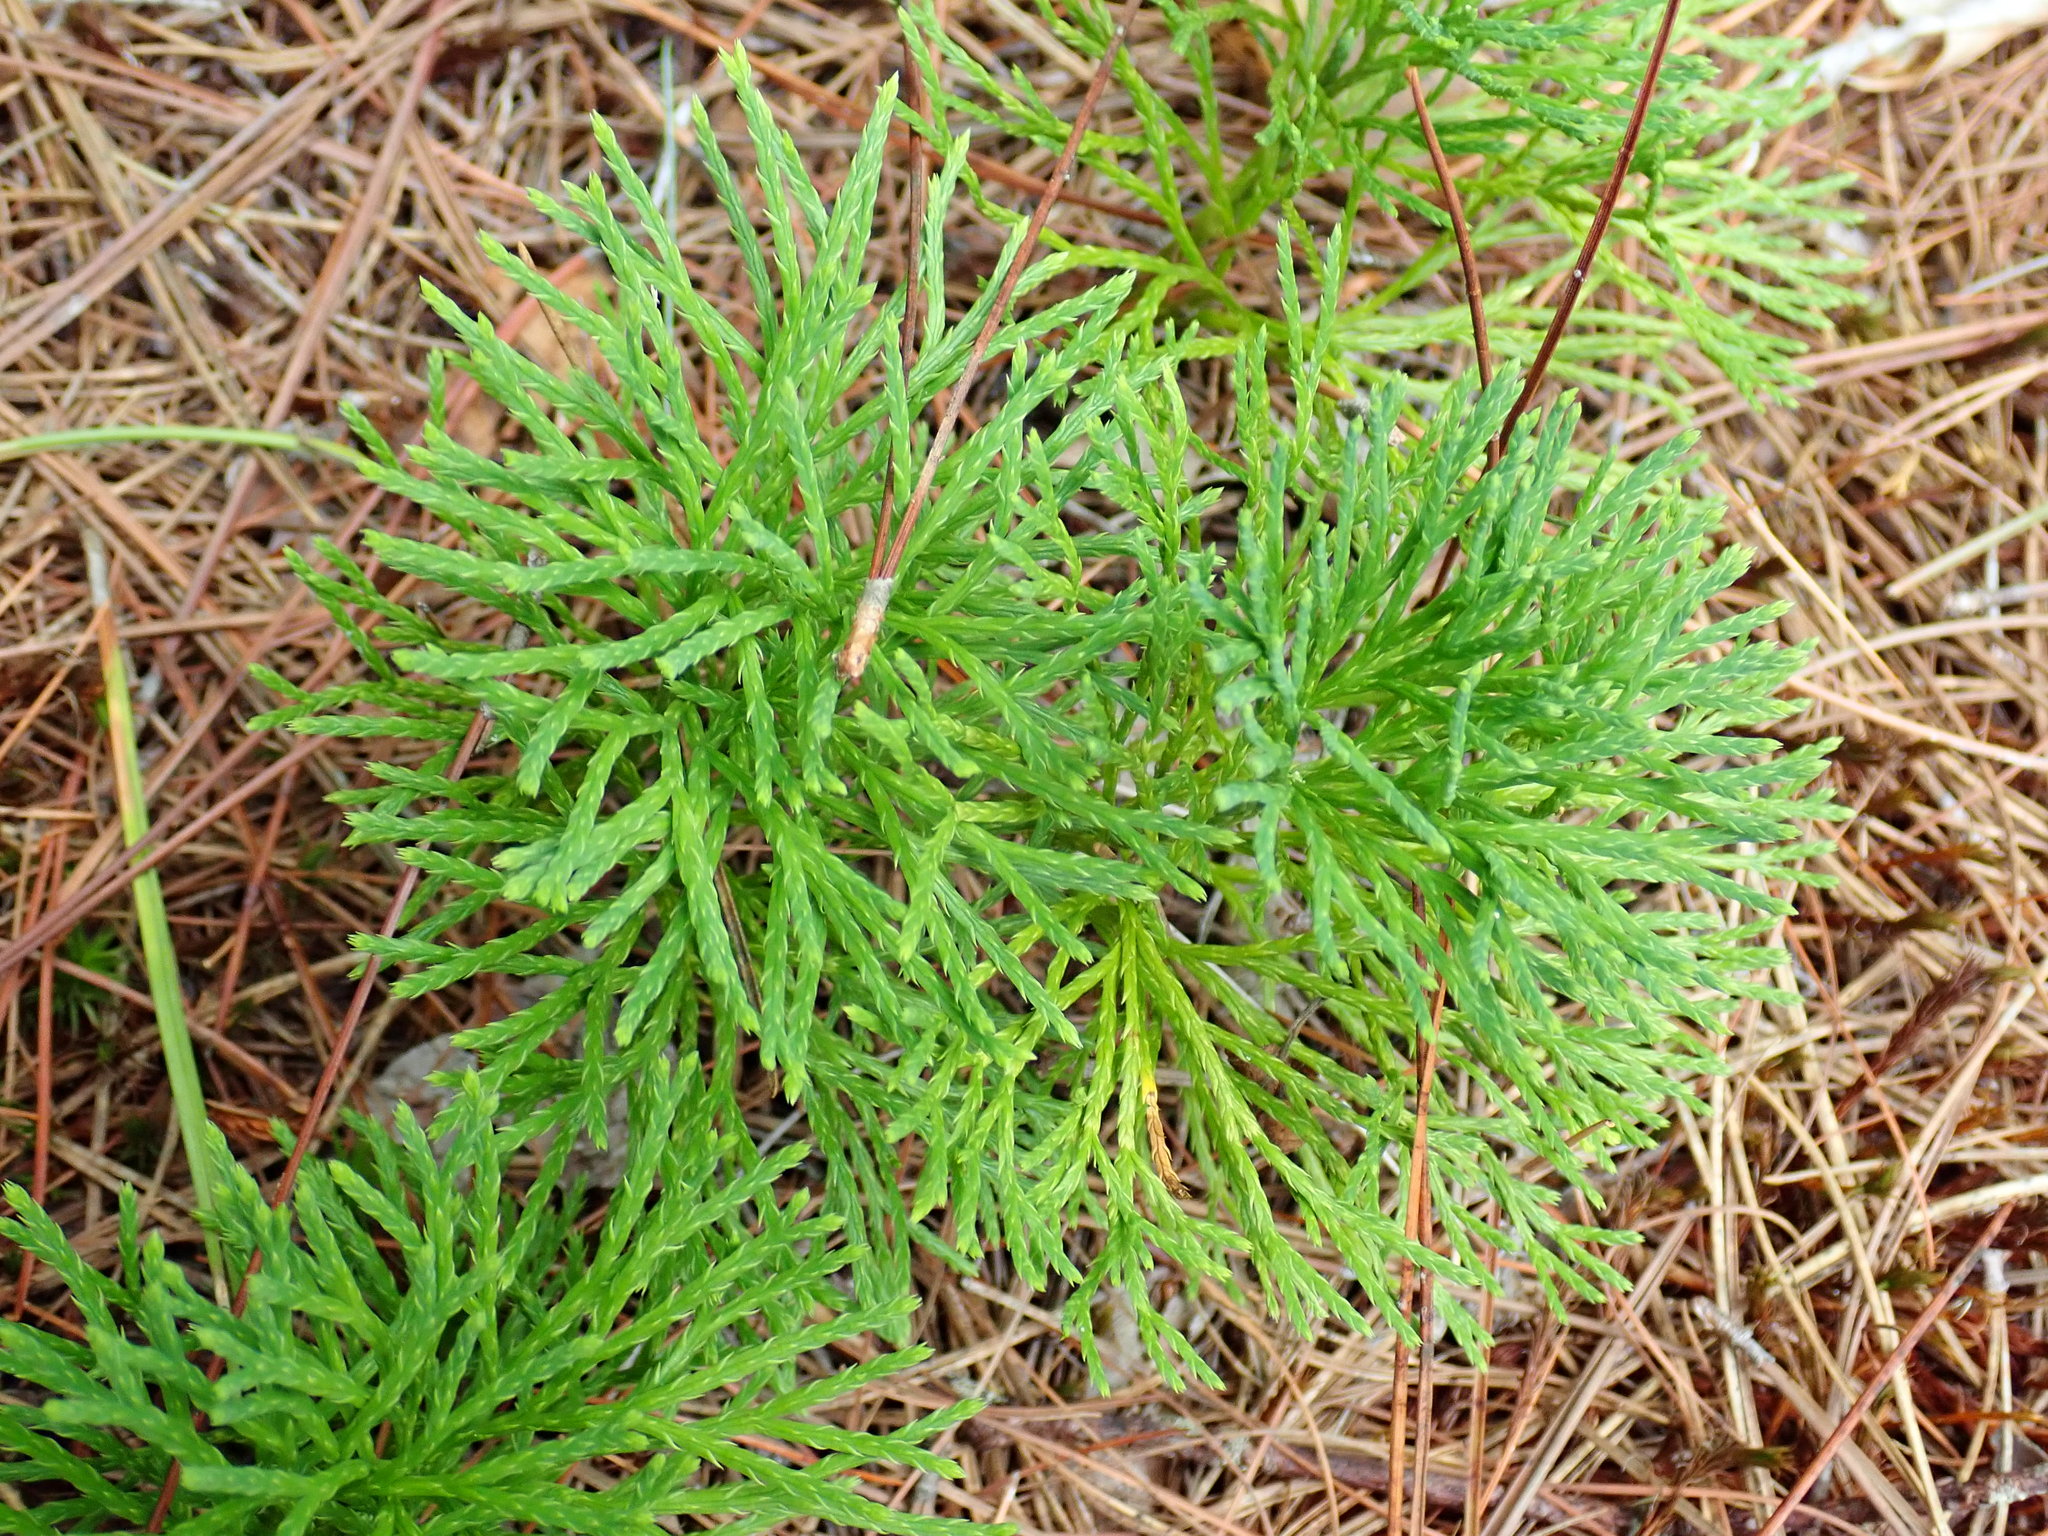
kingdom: Plantae
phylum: Tracheophyta
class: Lycopodiopsida
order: Lycopodiales
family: Lycopodiaceae
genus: Diphasiastrum
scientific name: Diphasiastrum tristachyum
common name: Blue ground-cedar
